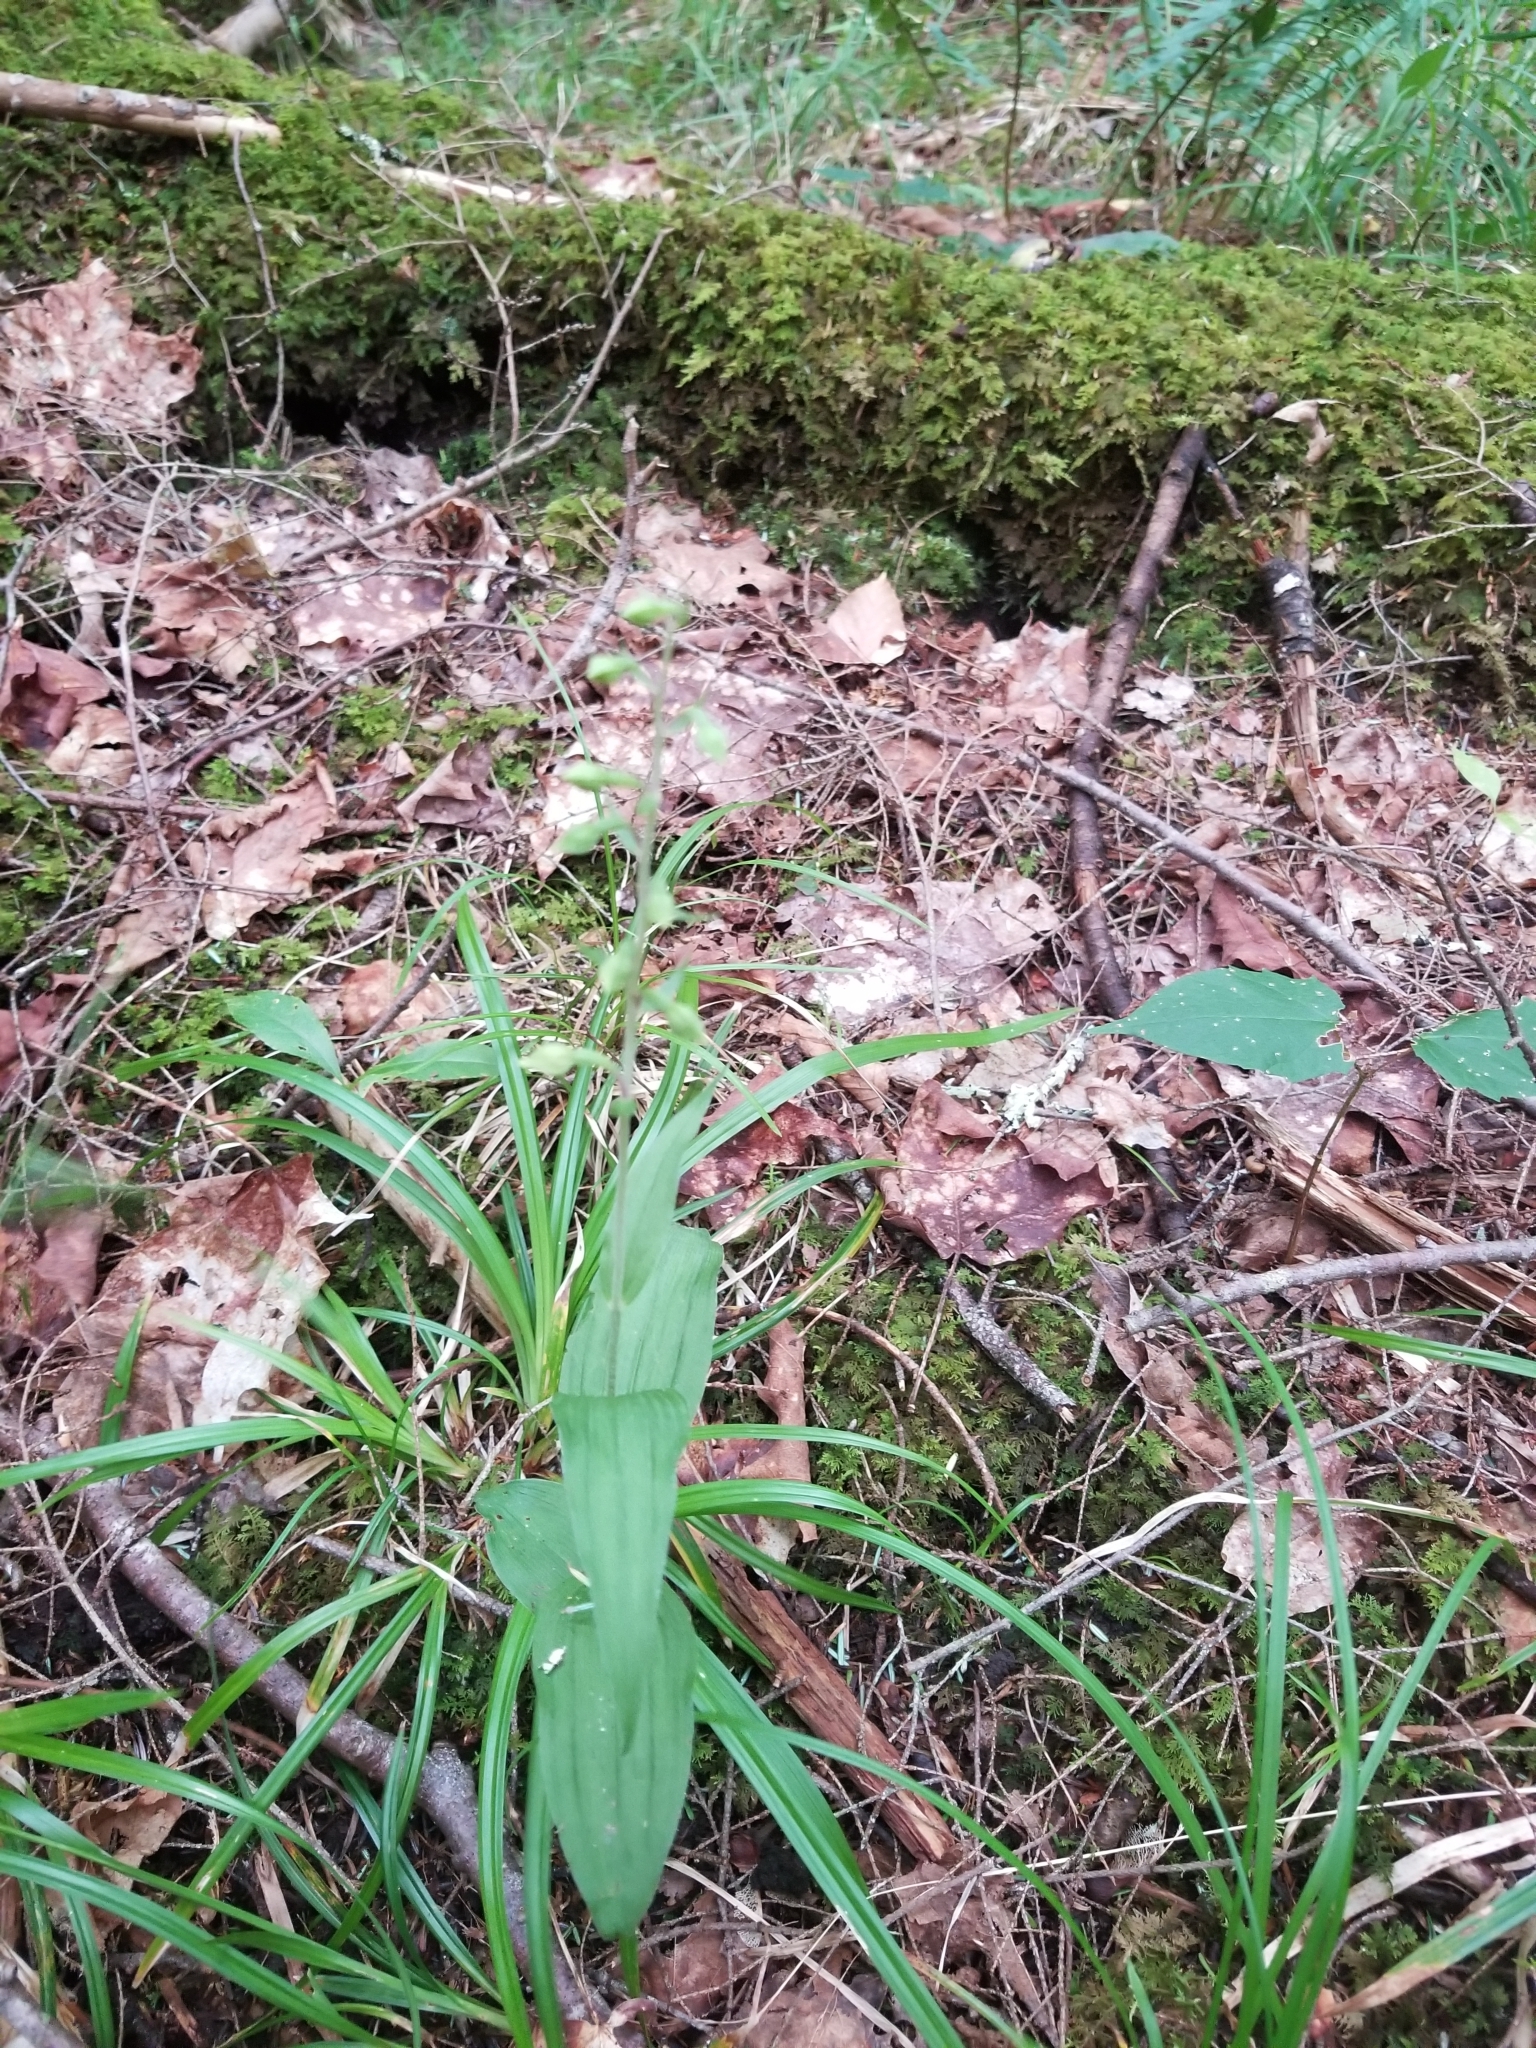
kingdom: Plantae
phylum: Tracheophyta
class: Liliopsida
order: Asparagales
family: Orchidaceae
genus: Epipactis
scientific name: Epipactis helleborine
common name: Broad-leaved helleborine
